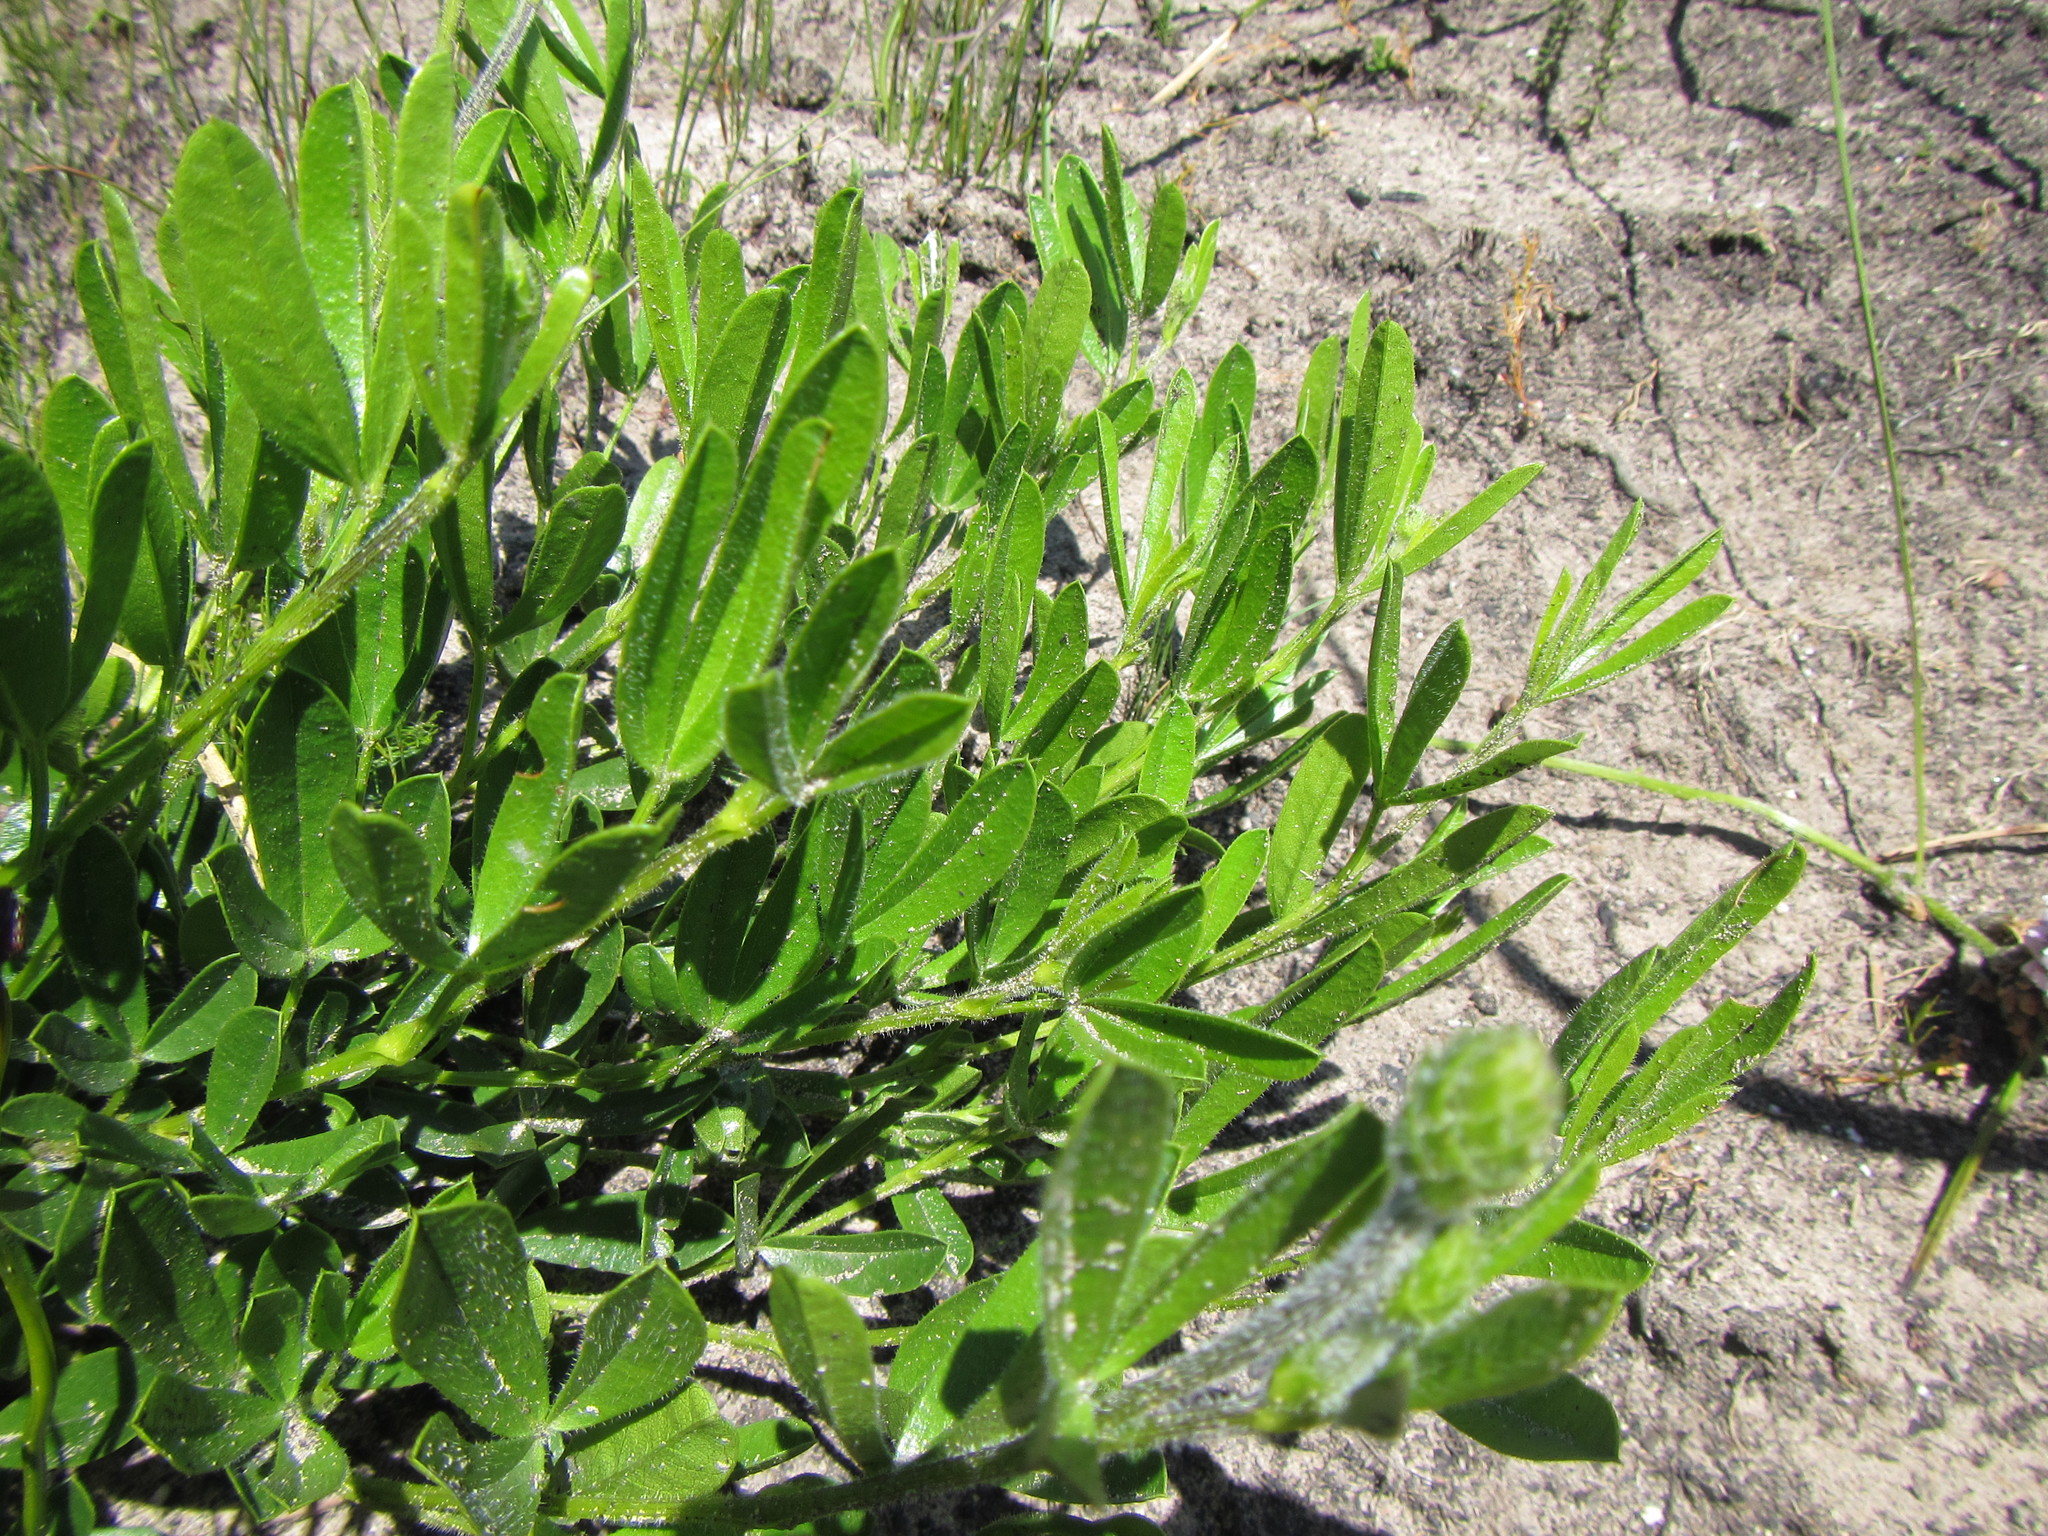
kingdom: Plantae
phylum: Tracheophyta
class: Magnoliopsida
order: Fabales
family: Fabaceae
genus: Psoralea
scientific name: Psoralea zeyheri
